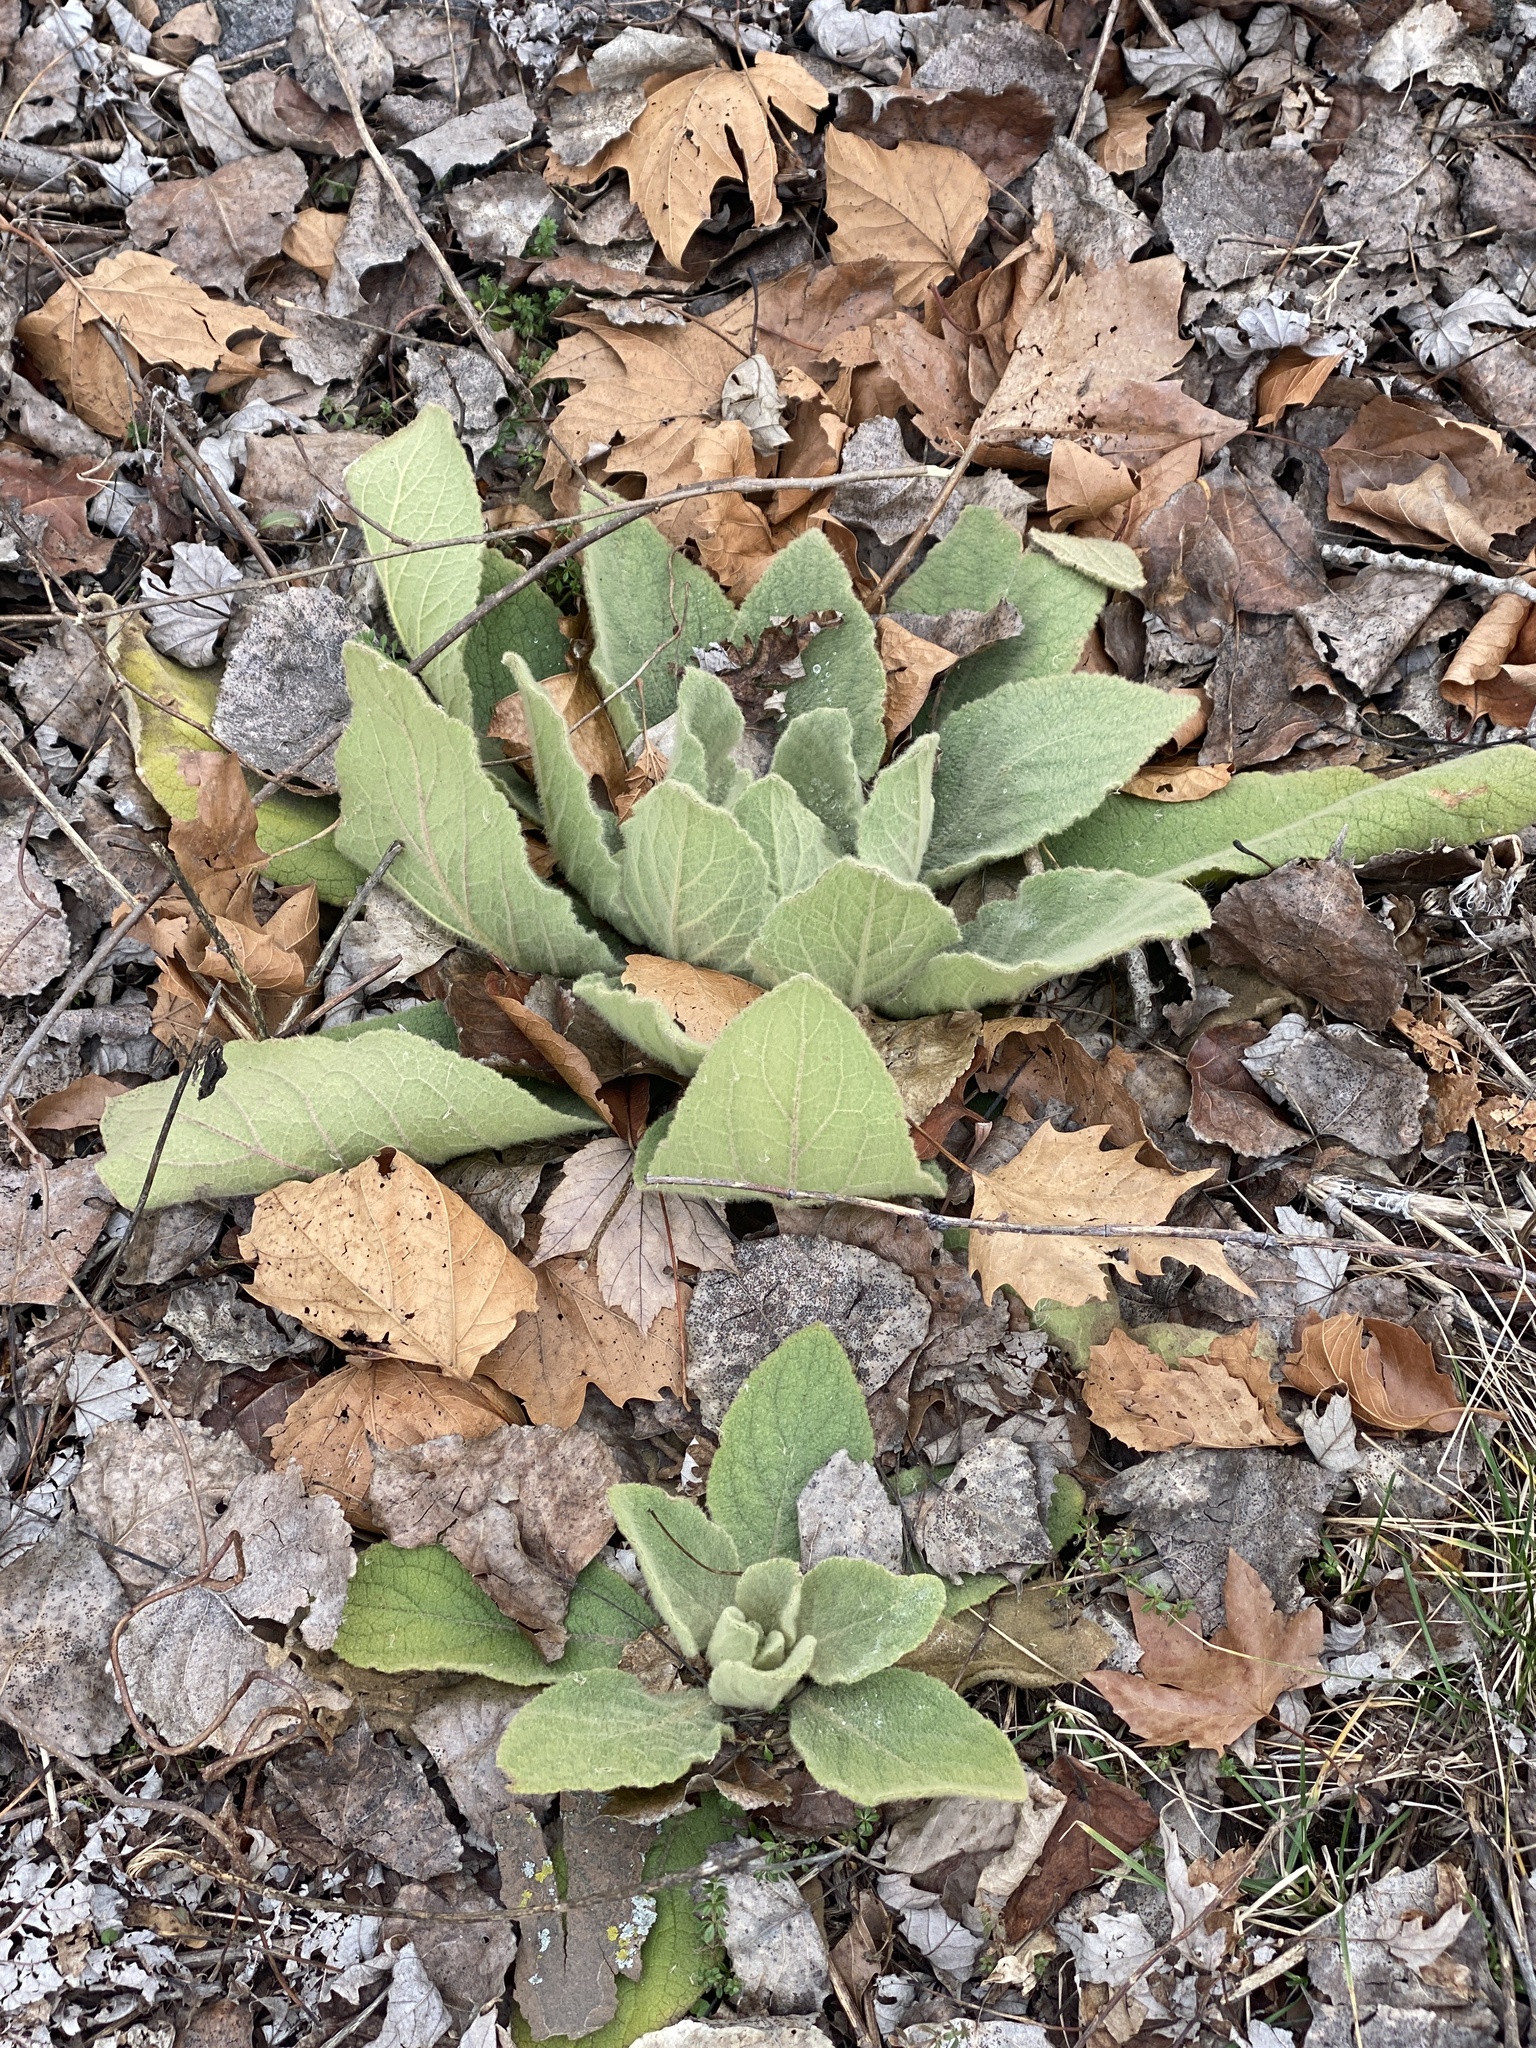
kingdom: Plantae
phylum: Tracheophyta
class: Magnoliopsida
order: Lamiales
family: Scrophulariaceae
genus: Verbascum
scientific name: Verbascum thapsus
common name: Common mullein
